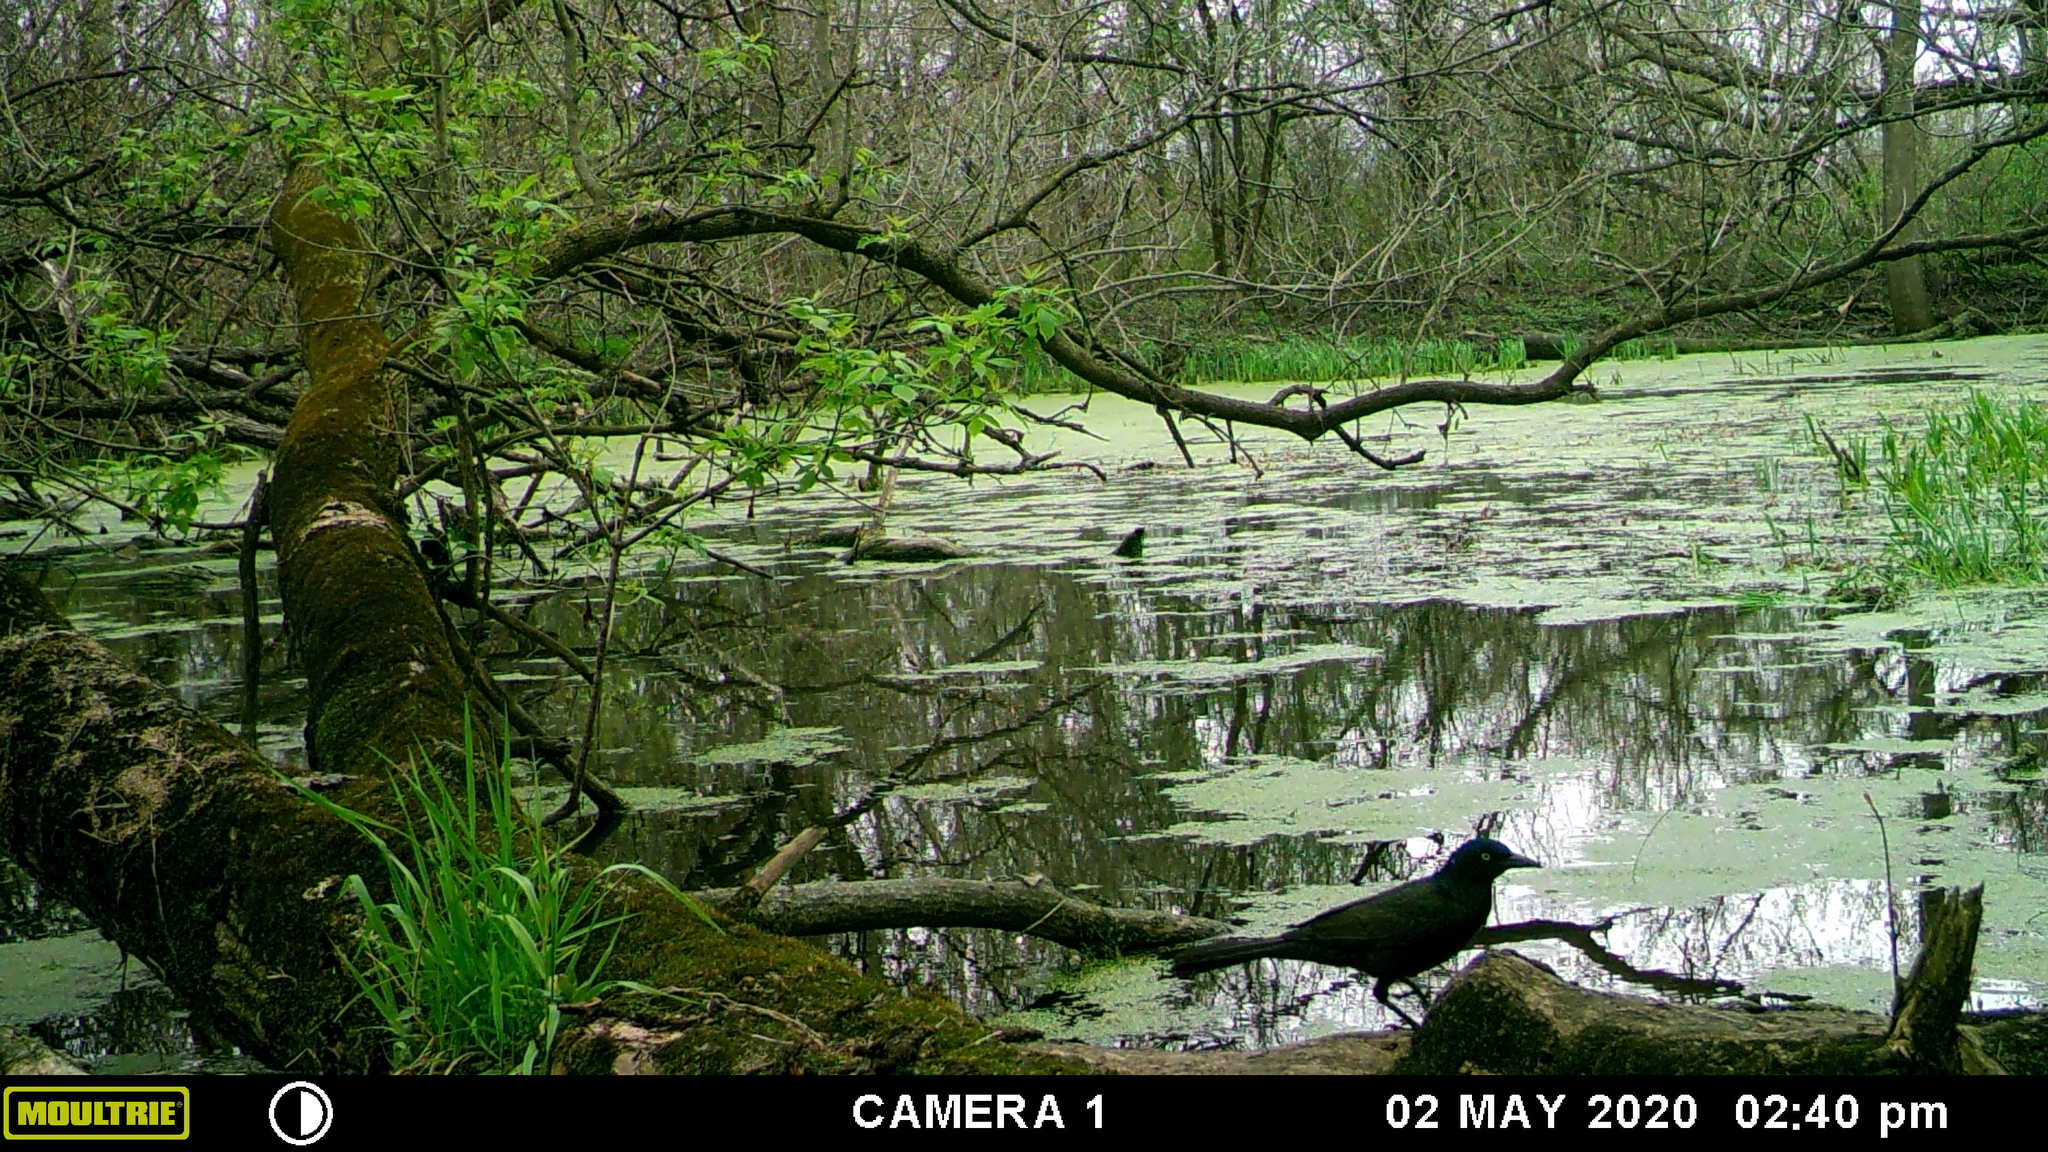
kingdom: Animalia
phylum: Chordata
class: Aves
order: Passeriformes
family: Icteridae
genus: Quiscalus
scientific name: Quiscalus quiscula
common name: Common grackle
